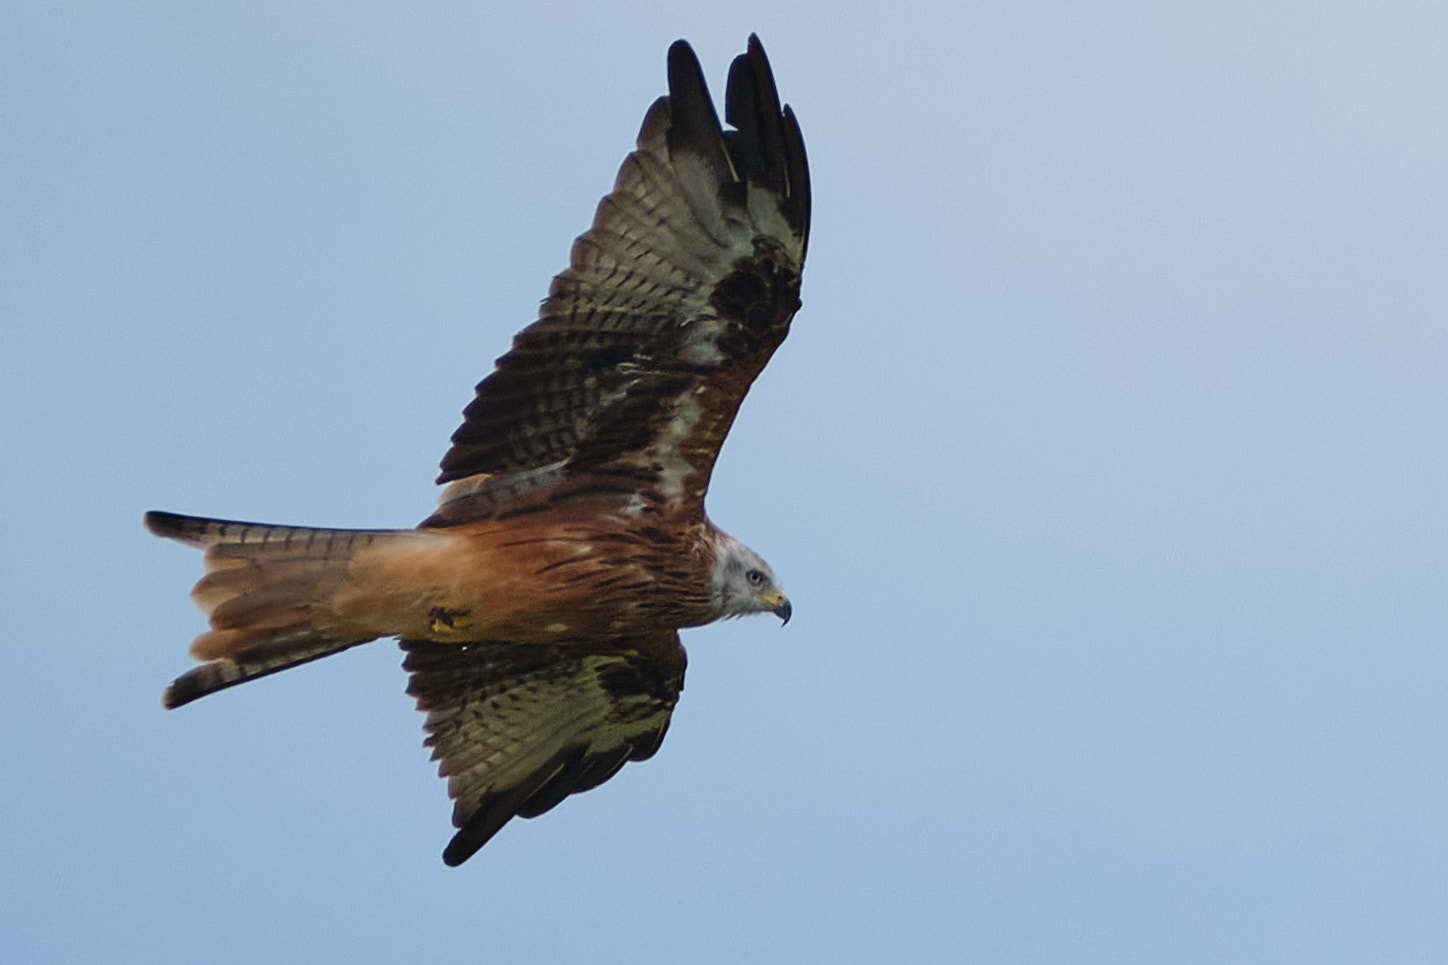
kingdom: Animalia
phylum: Chordata
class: Aves
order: Accipitriformes
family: Accipitridae
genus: Milvus
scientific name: Milvus milvus
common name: Red kite
